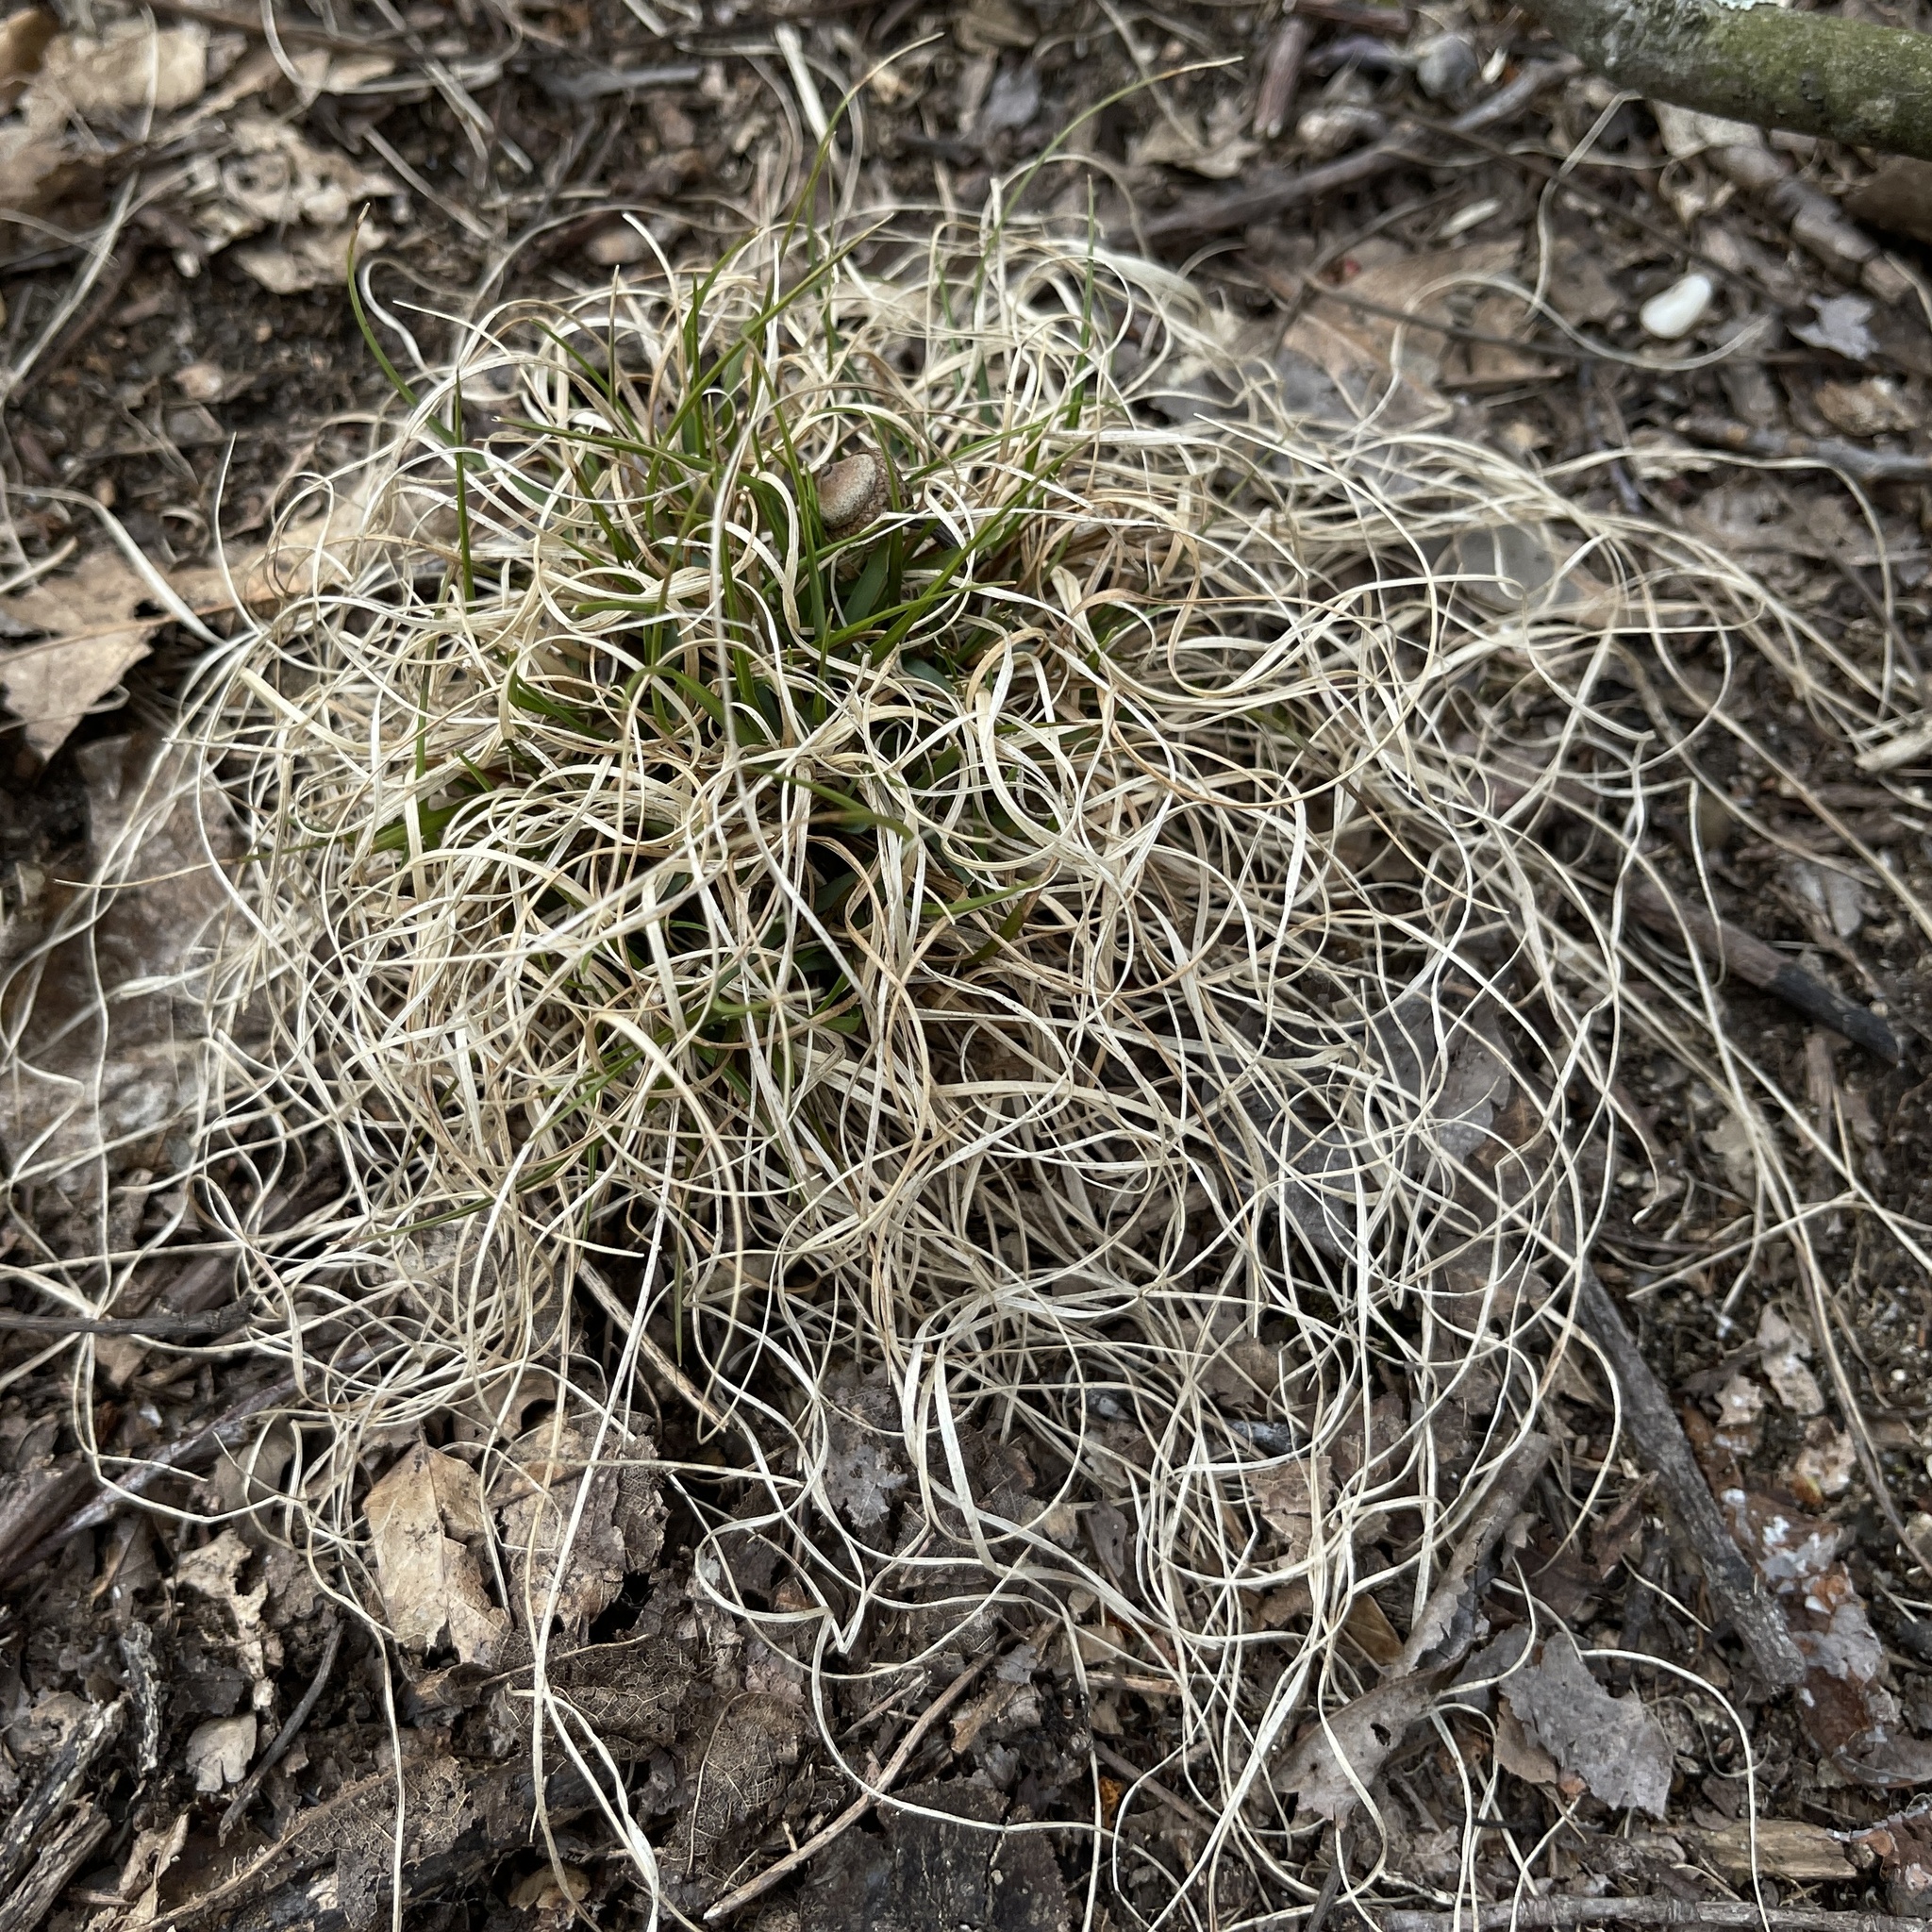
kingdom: Plantae
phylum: Tracheophyta
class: Liliopsida
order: Poales
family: Poaceae
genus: Danthonia
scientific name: Danthonia spicata
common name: Common wild oatgrass
